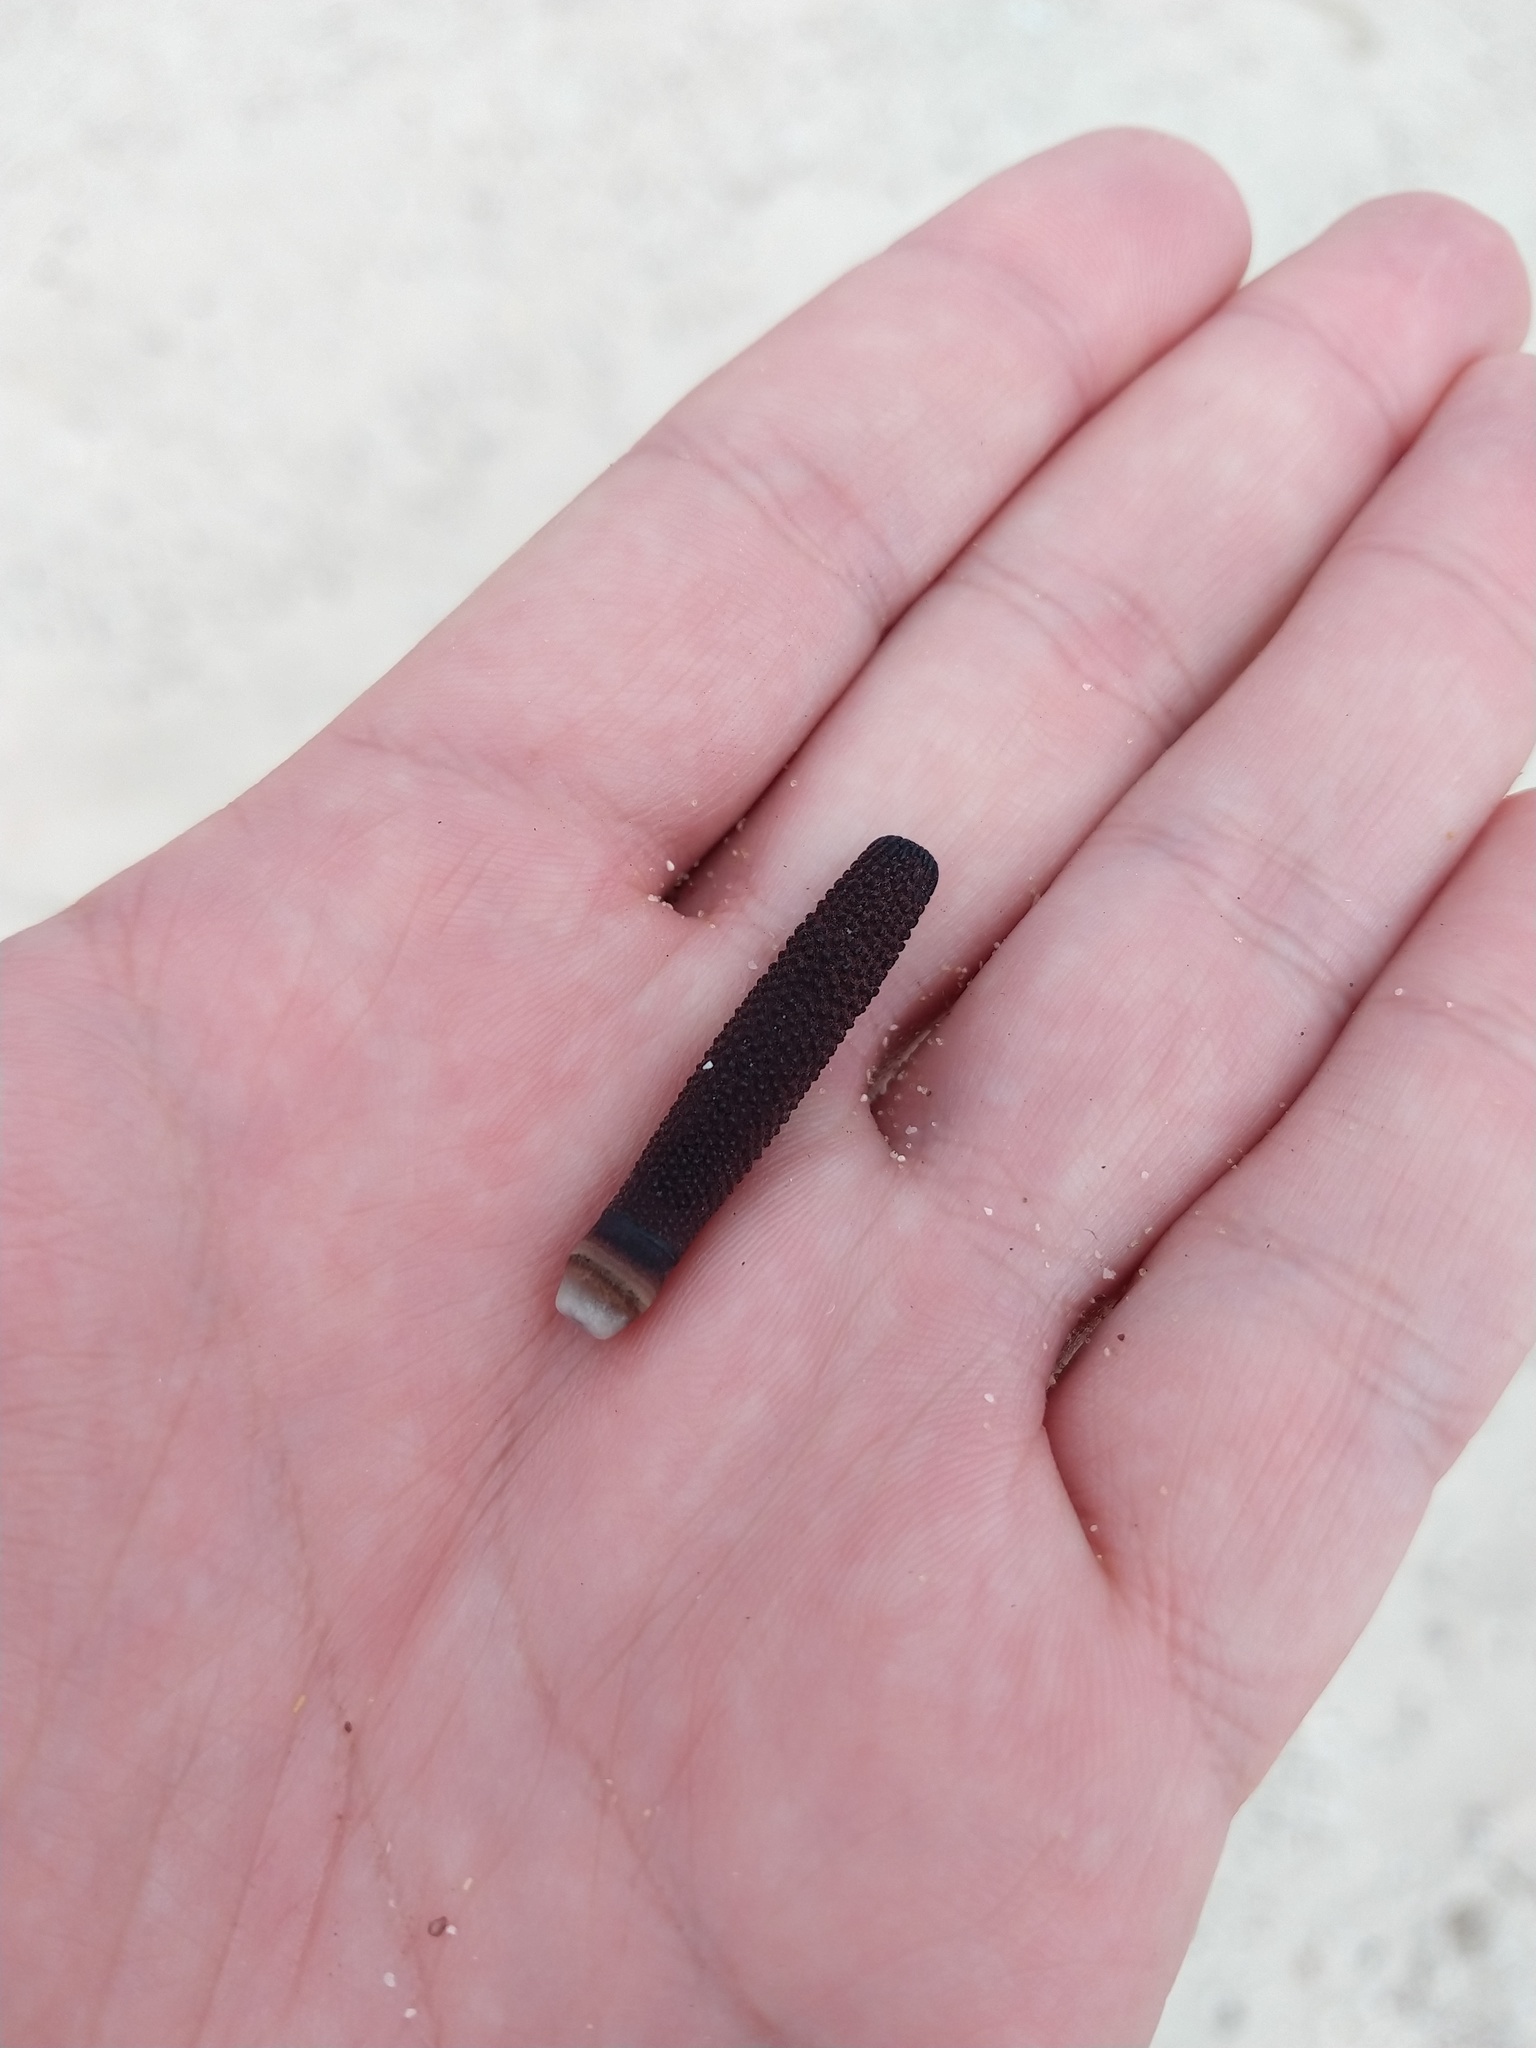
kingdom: Animalia
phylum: Echinodermata
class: Echinoidea
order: Cidaroida
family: Cidaridae
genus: Eucidaris
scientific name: Eucidaris galapagensis
